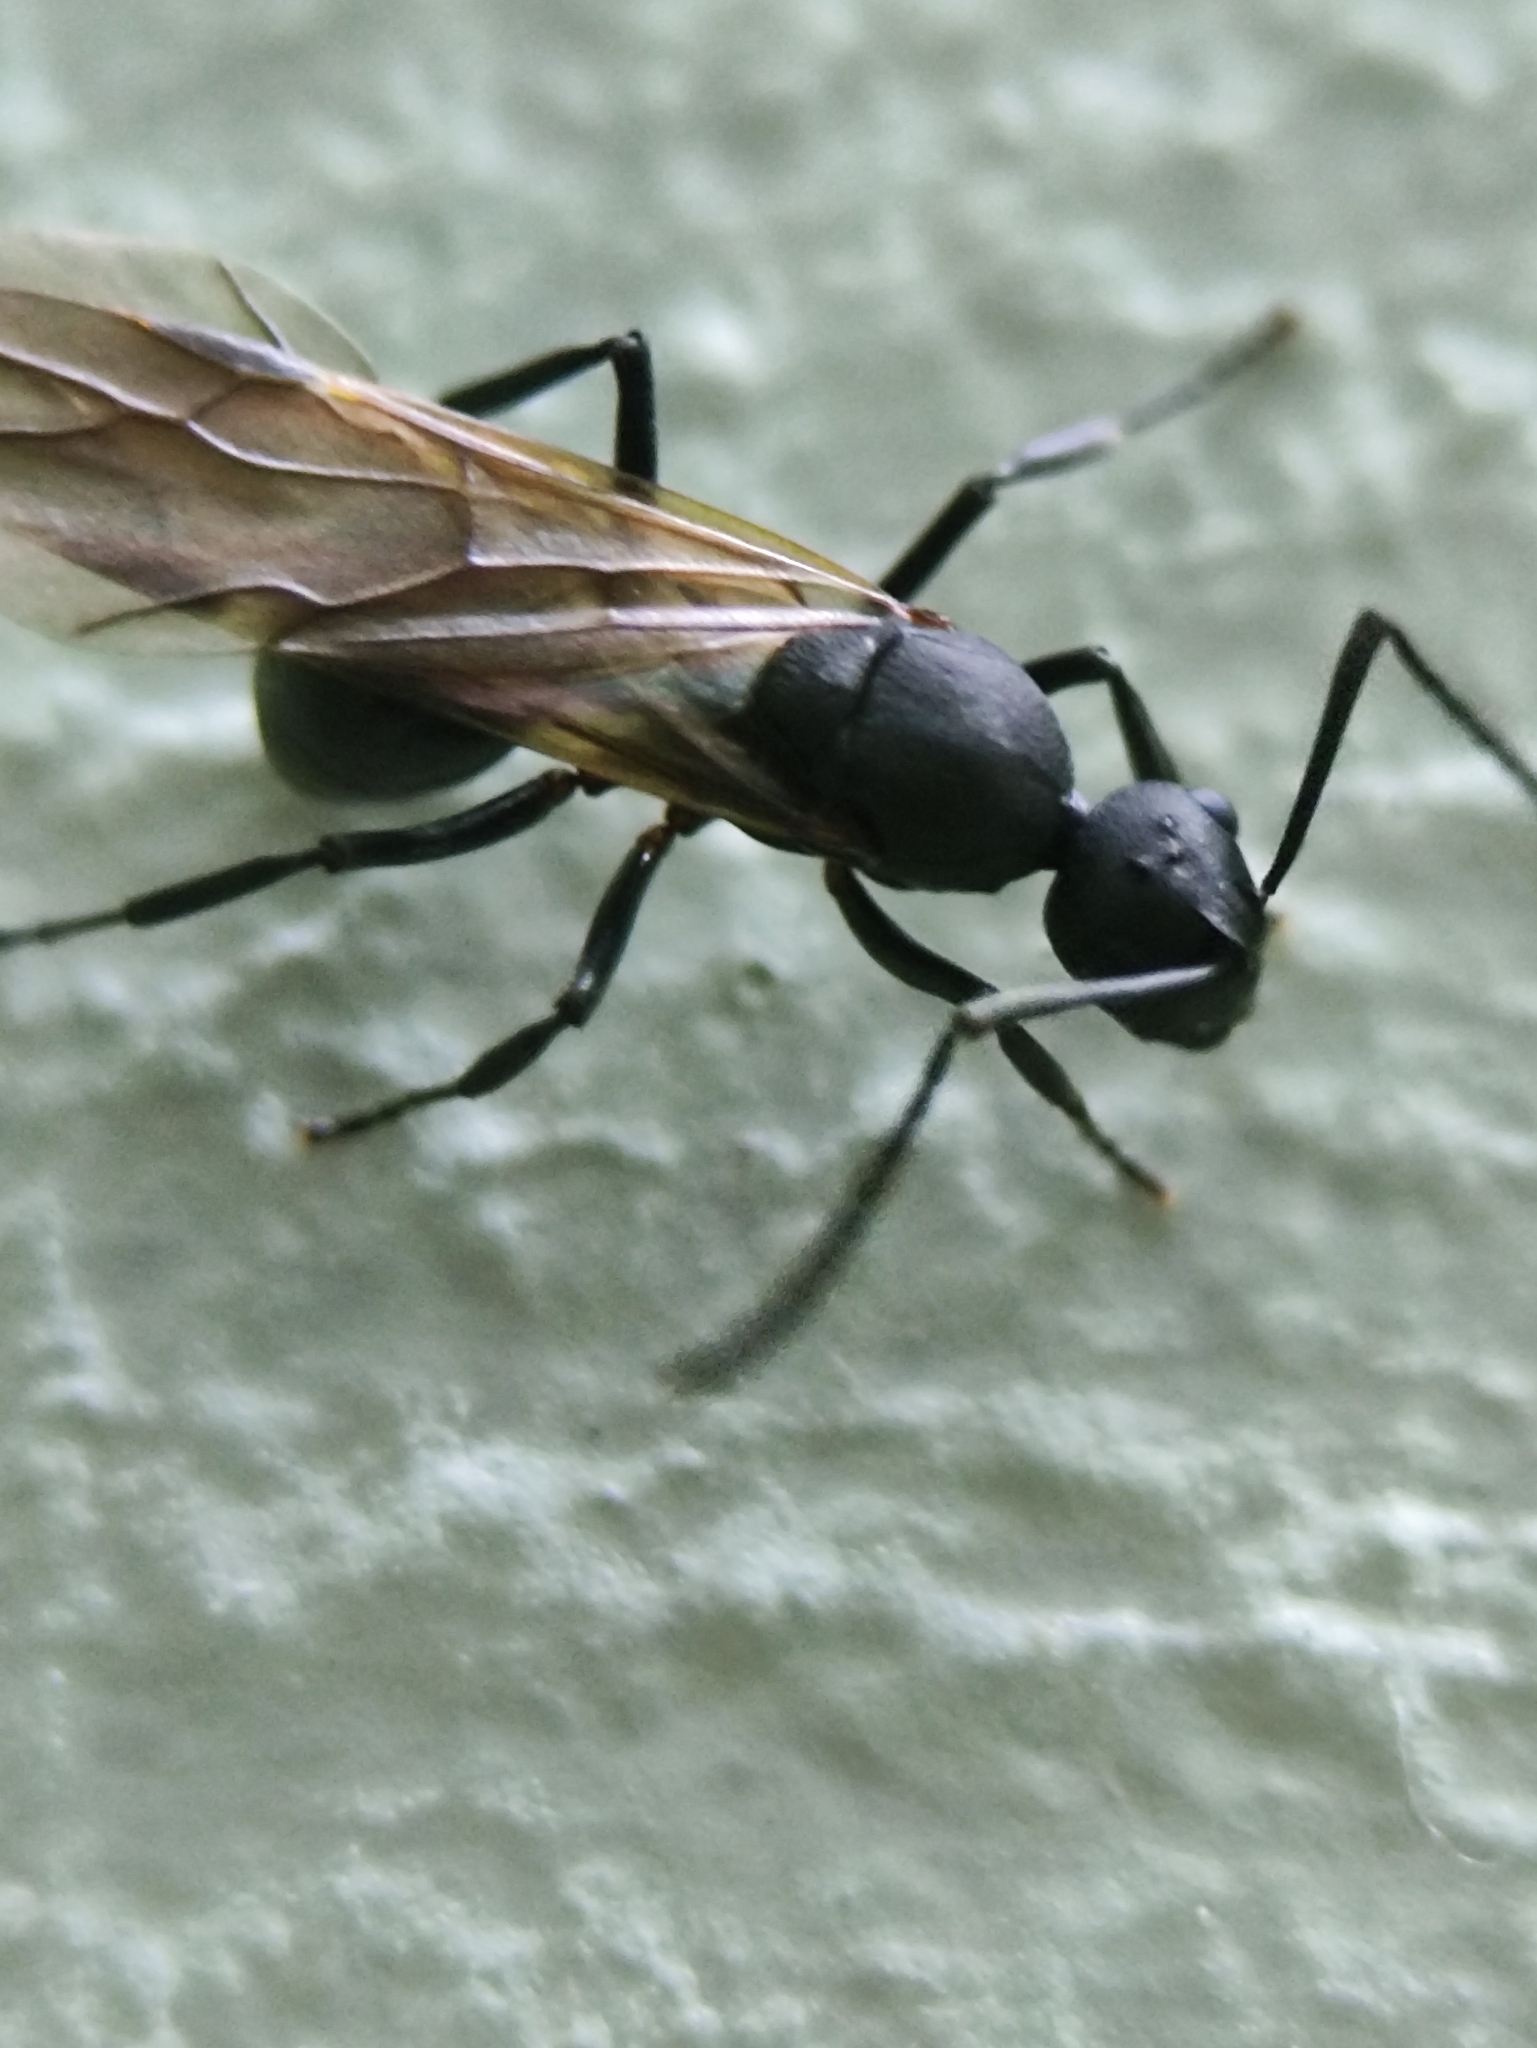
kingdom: Animalia
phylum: Arthropoda
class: Insecta
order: Hymenoptera
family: Formicidae
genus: Polyrhachis
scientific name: Polyrhachis hippomanes
